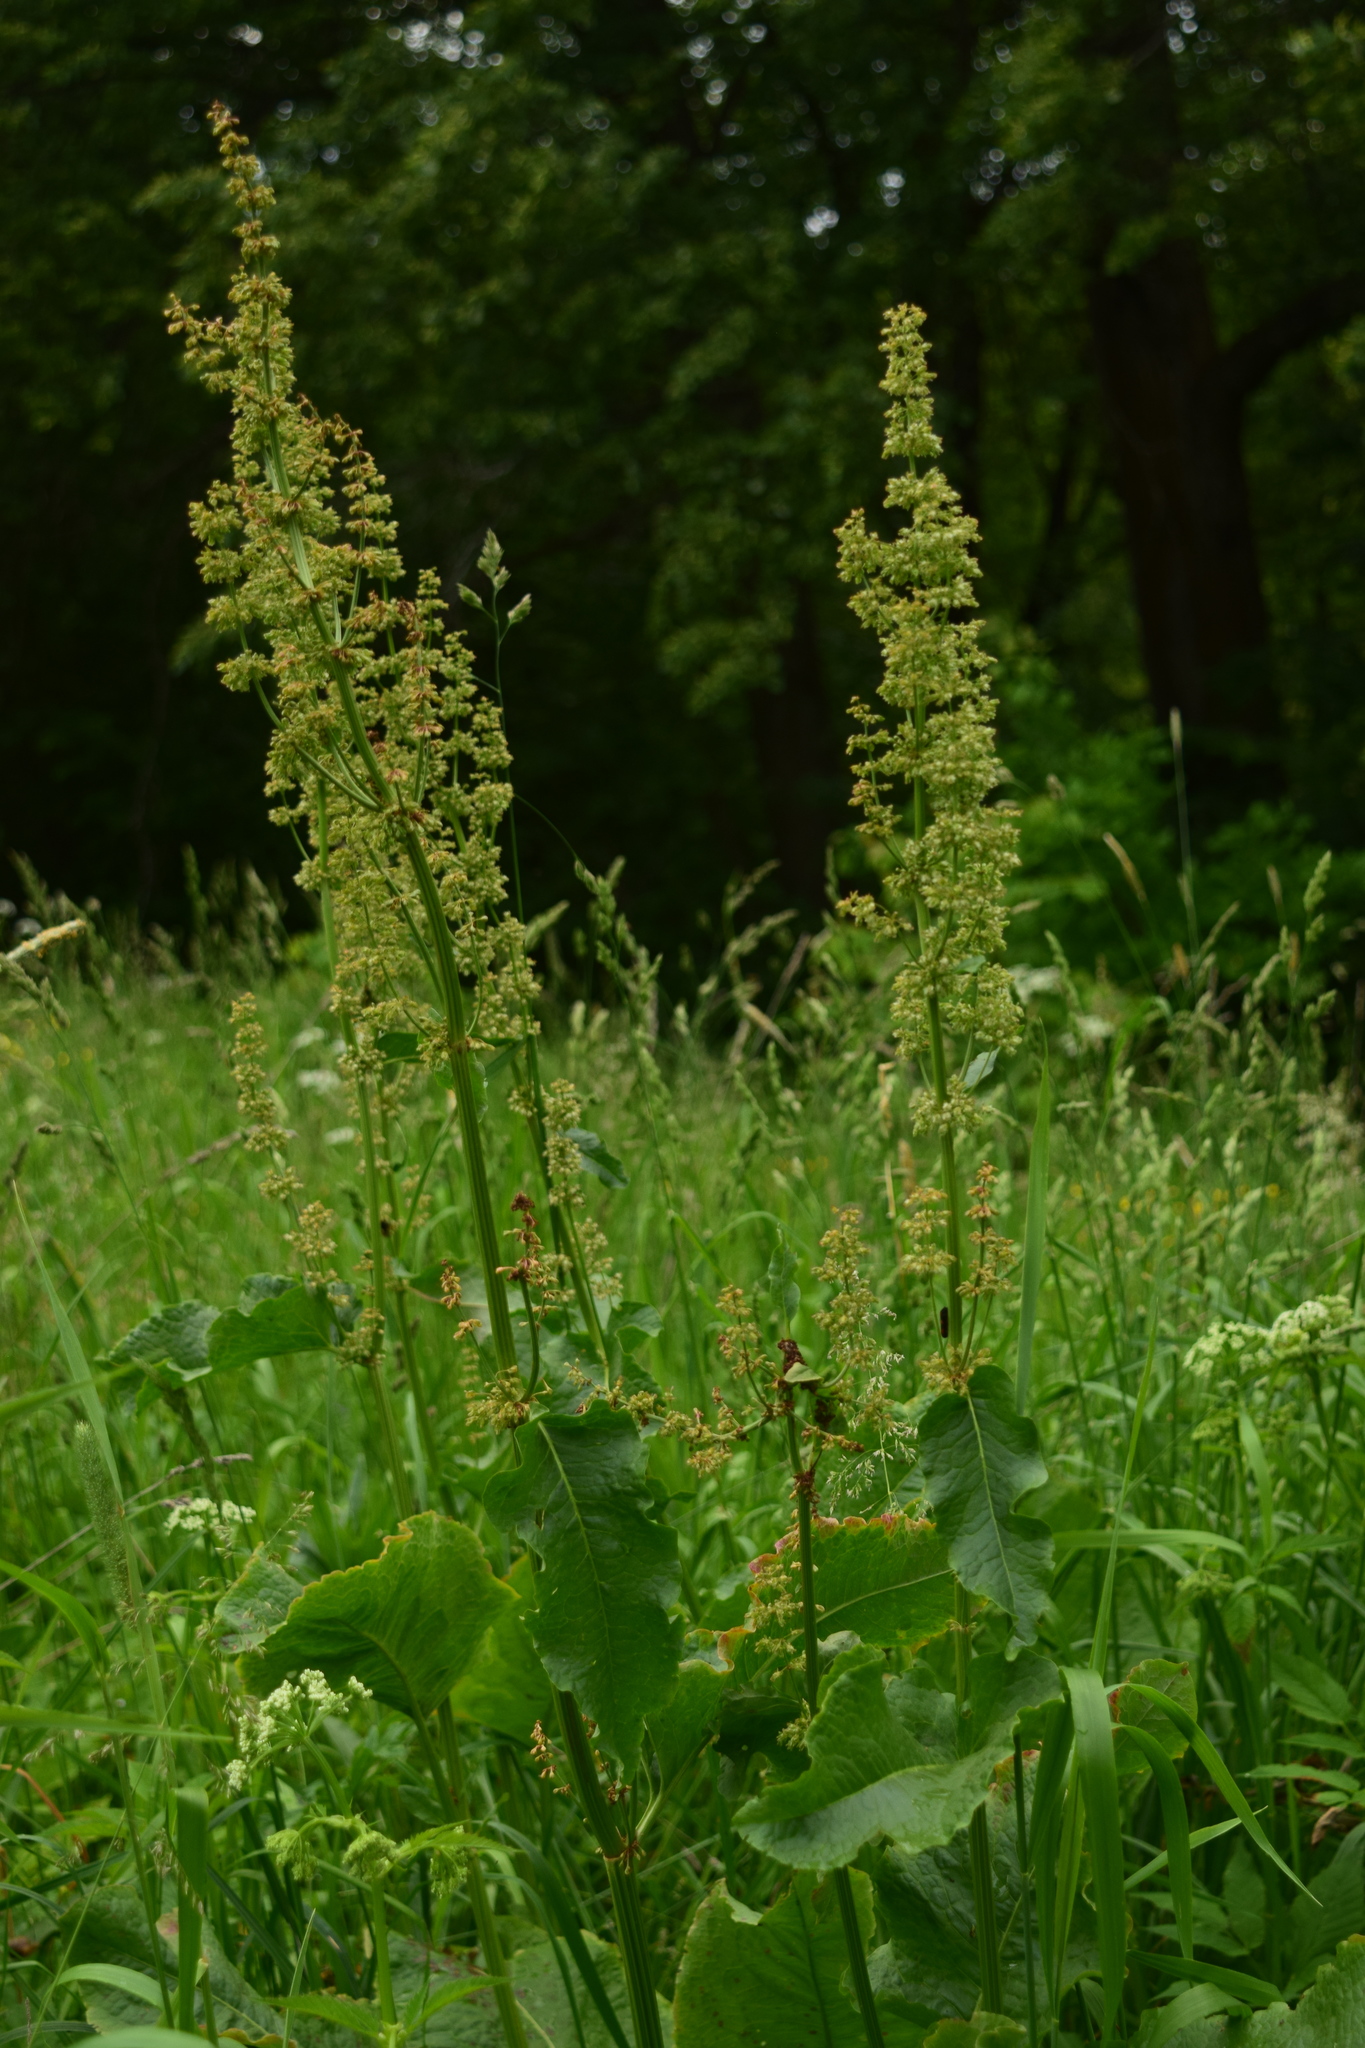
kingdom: Plantae
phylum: Tracheophyta
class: Magnoliopsida
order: Caryophyllales
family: Polygonaceae
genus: Rumex
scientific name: Rumex confertus
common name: Russian dock
